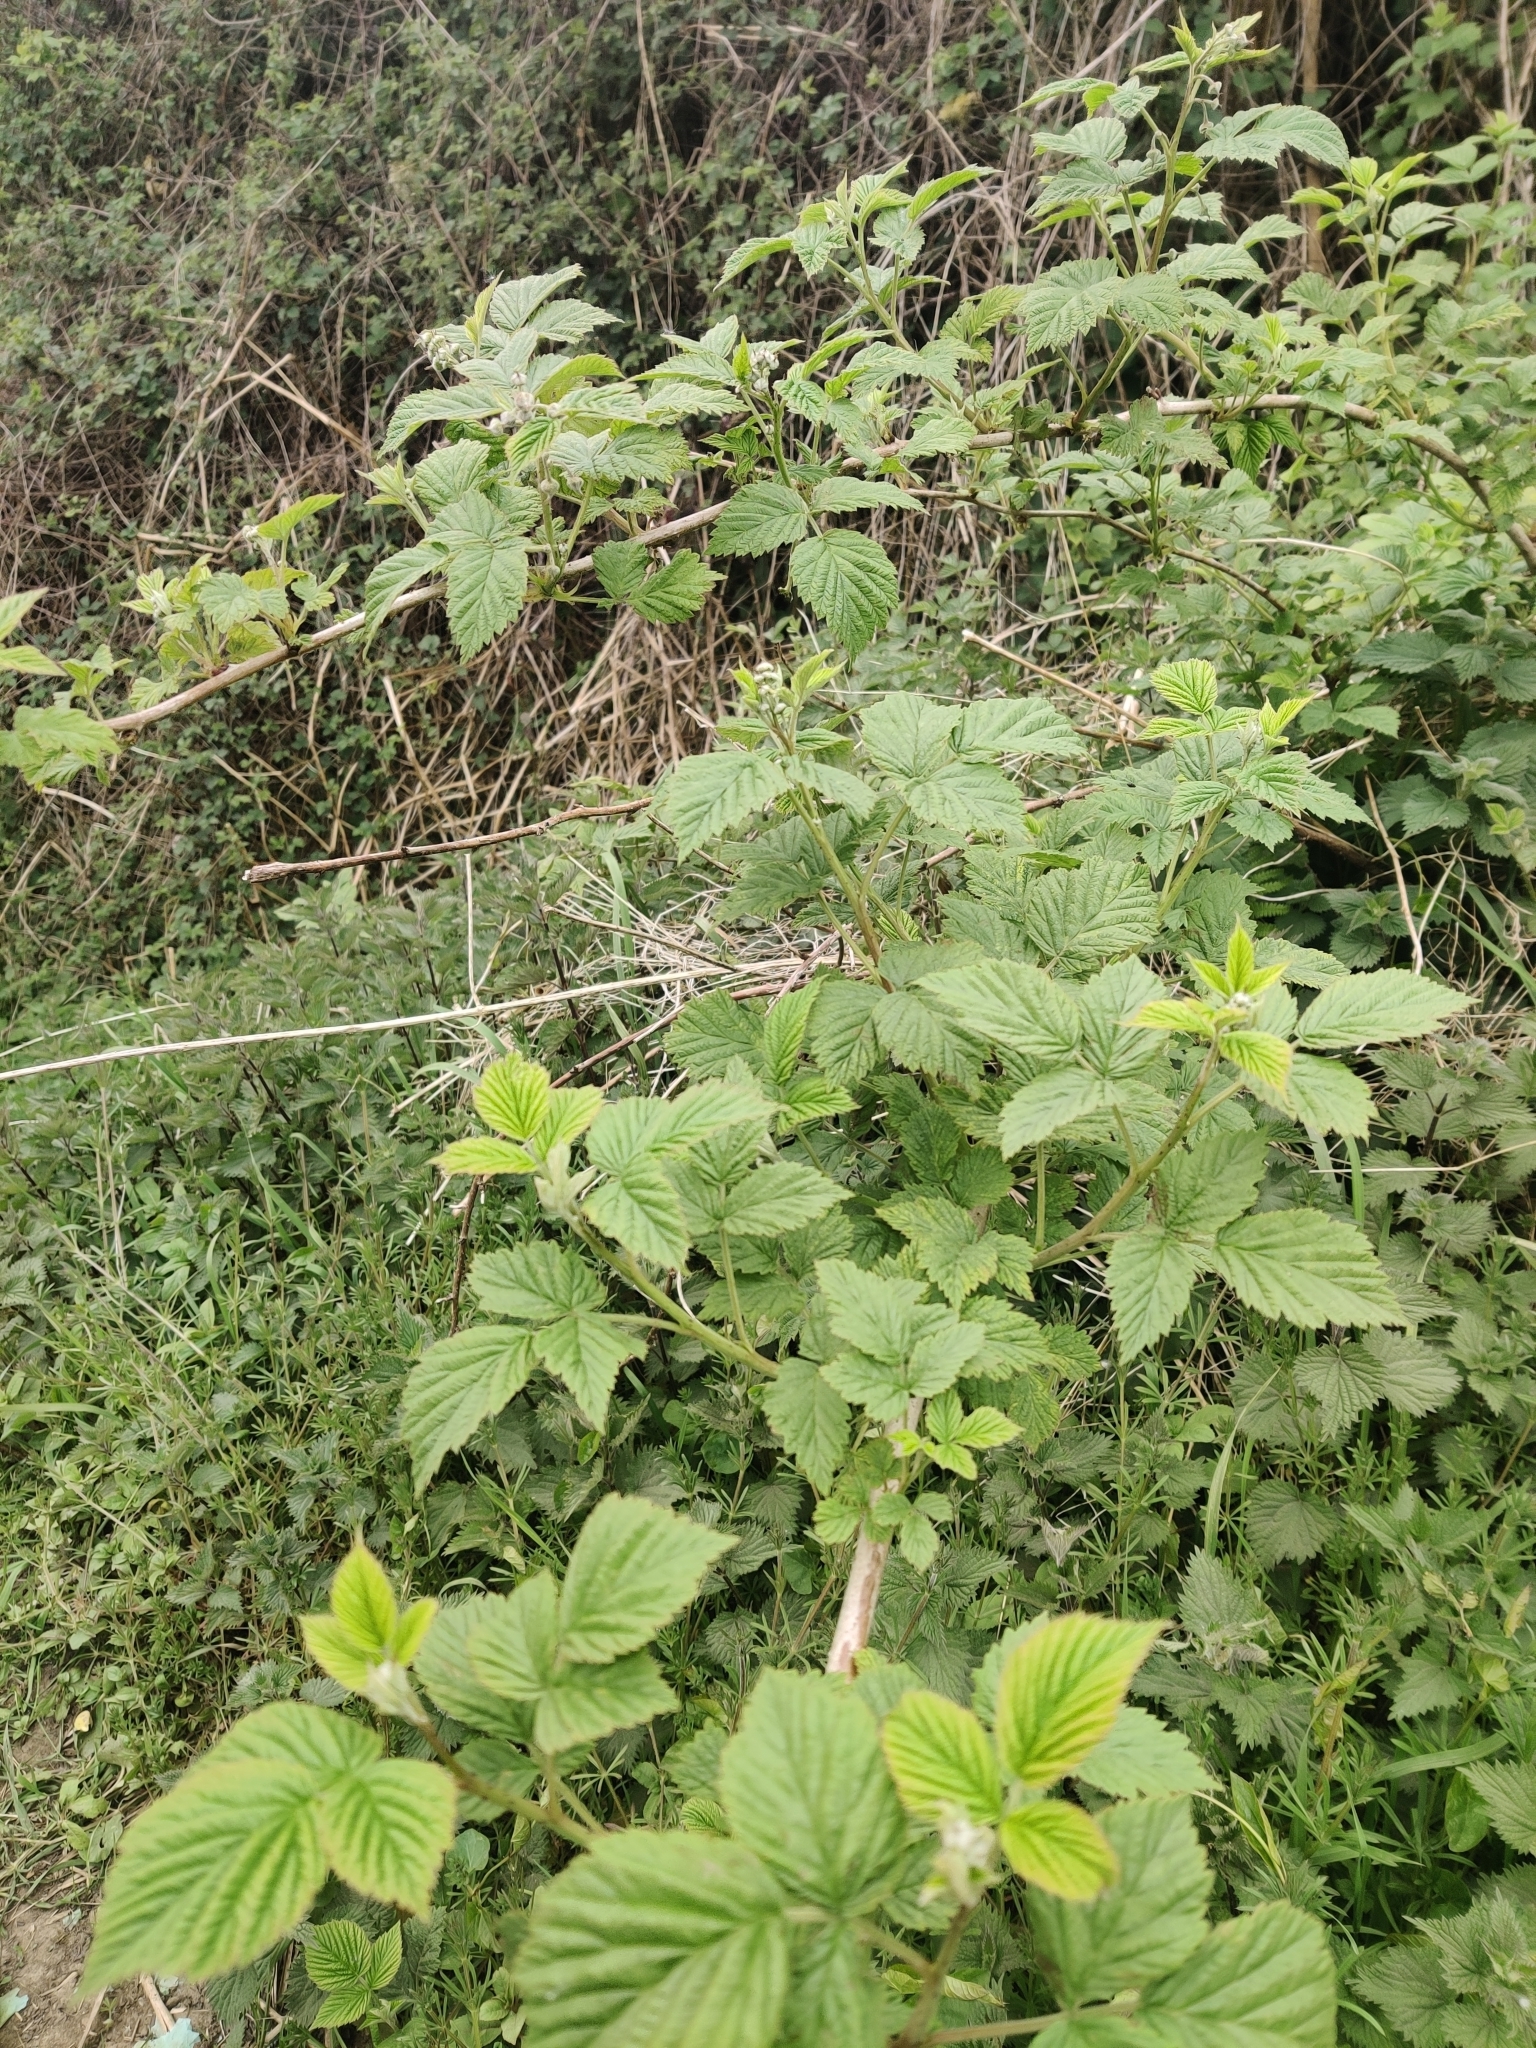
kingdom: Plantae
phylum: Tracheophyta
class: Magnoliopsida
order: Rosales
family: Rosaceae
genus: Rubus
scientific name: Rubus idaeus
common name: Raspberry
